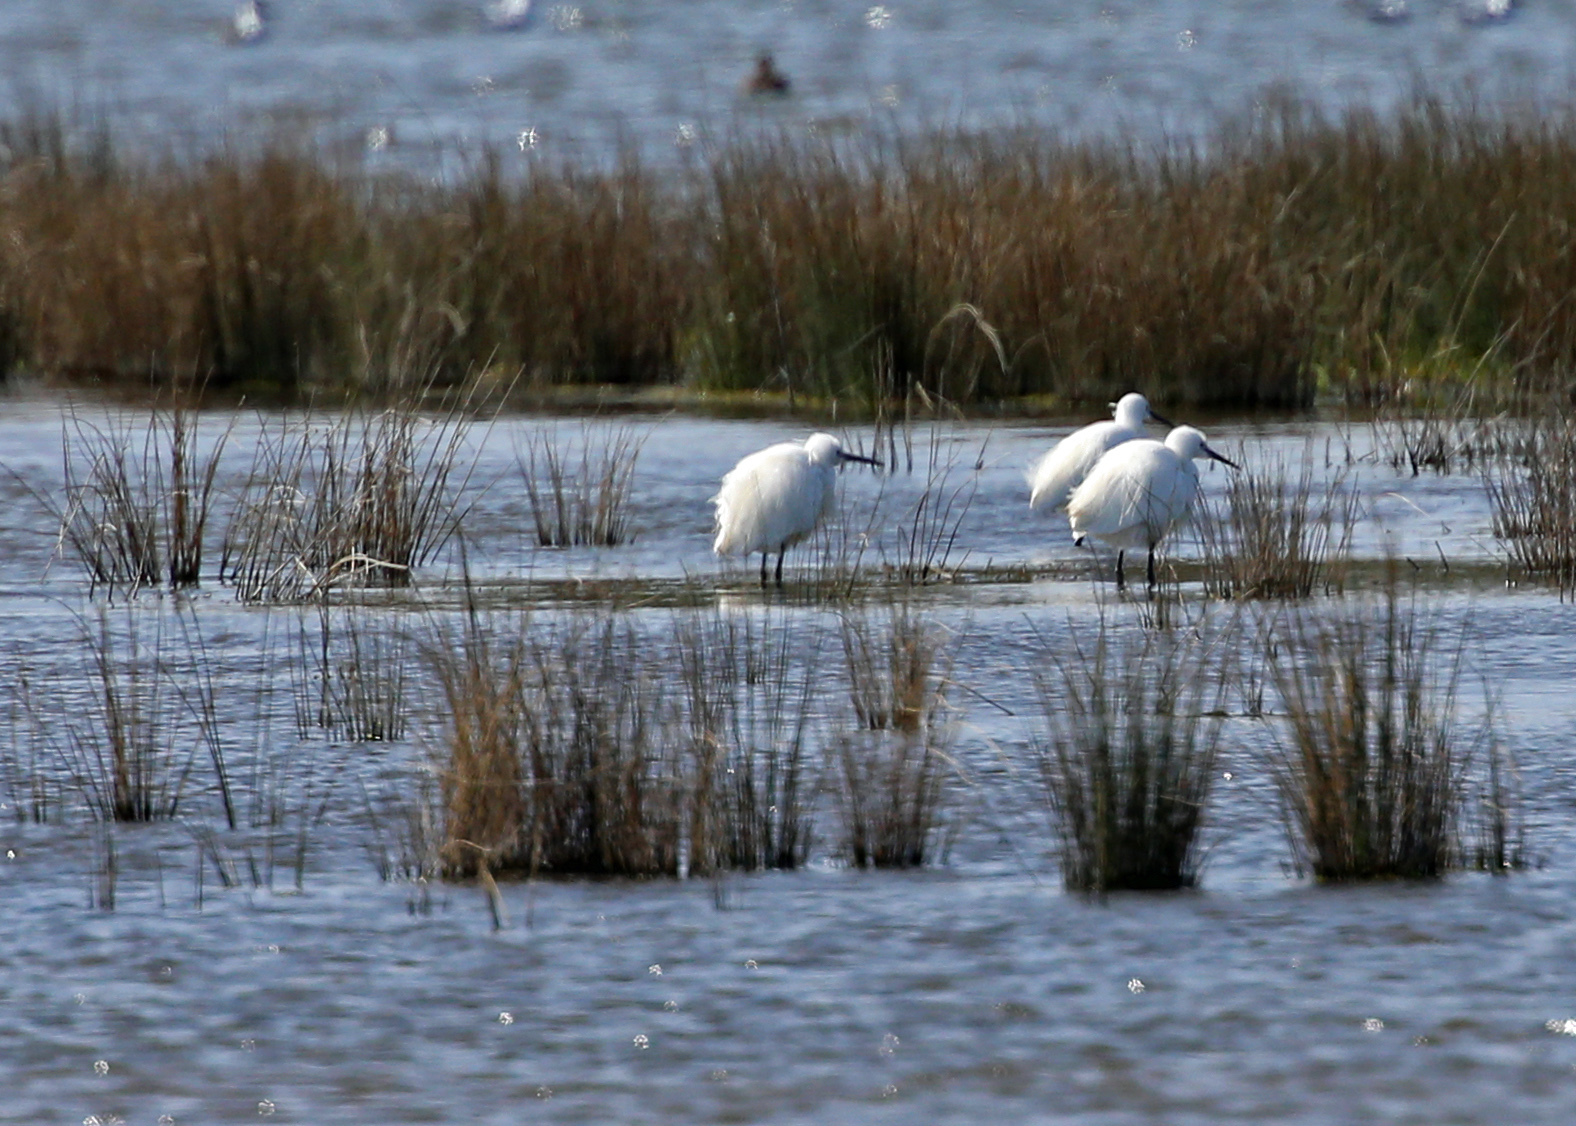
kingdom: Animalia
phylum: Chordata
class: Aves
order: Pelecaniformes
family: Ardeidae
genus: Egretta
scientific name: Egretta garzetta
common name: Little egret
